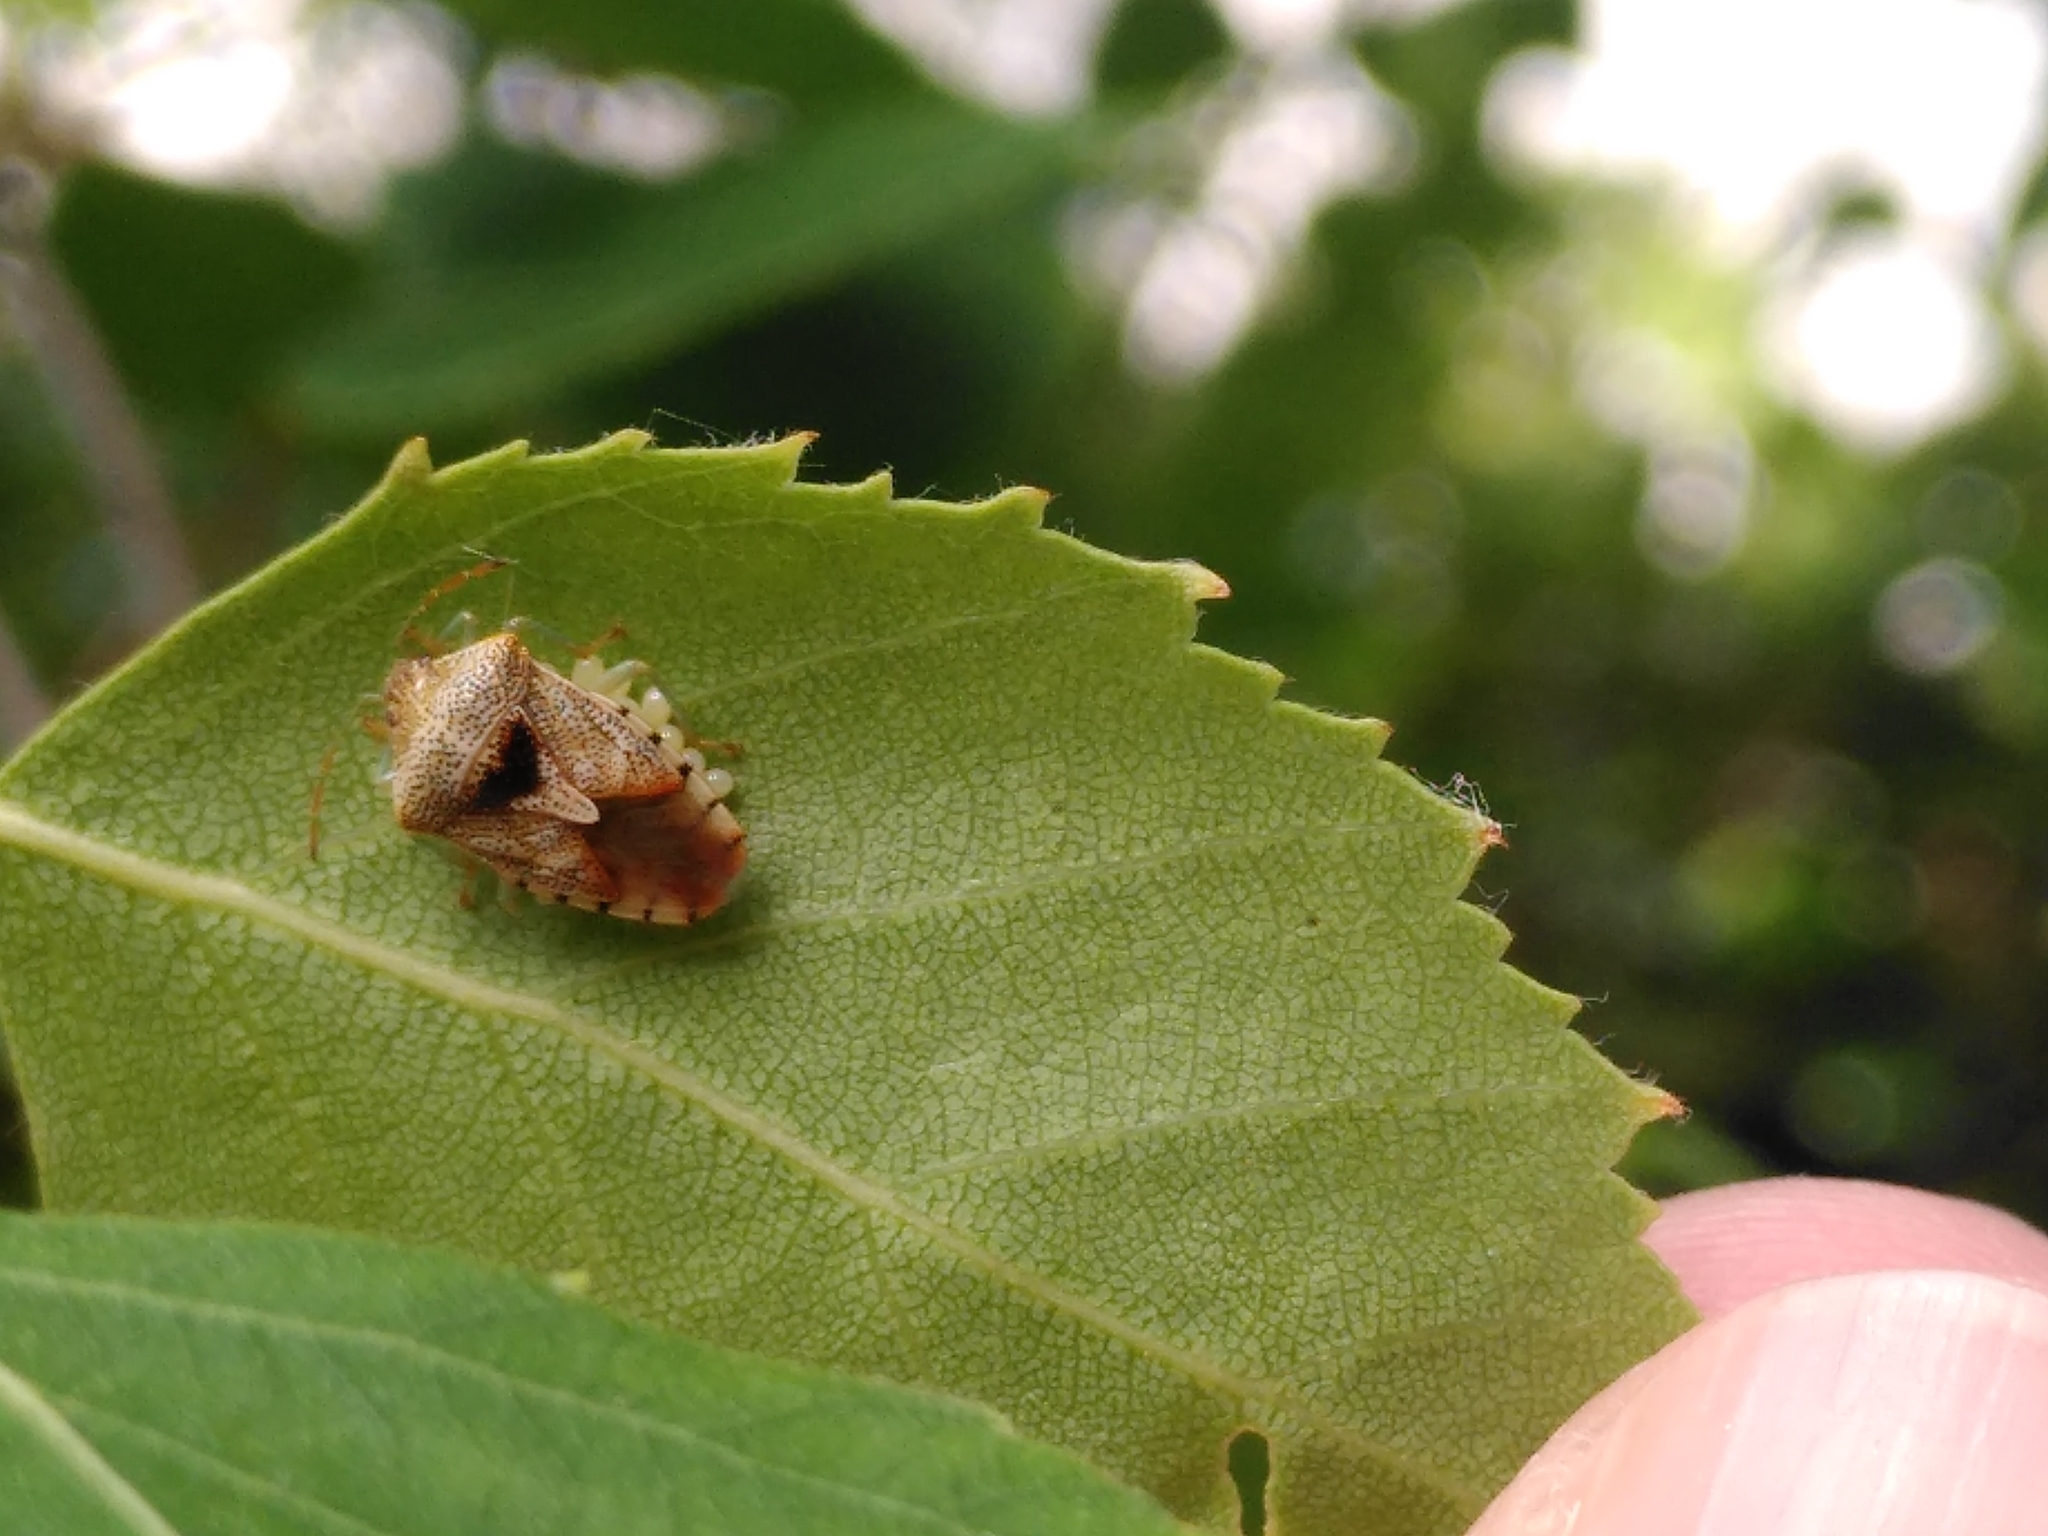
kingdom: Animalia
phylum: Arthropoda
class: Insecta
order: Hemiptera
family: Acanthosomatidae
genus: Elasmucha
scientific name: Elasmucha grisea
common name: Parent bug
